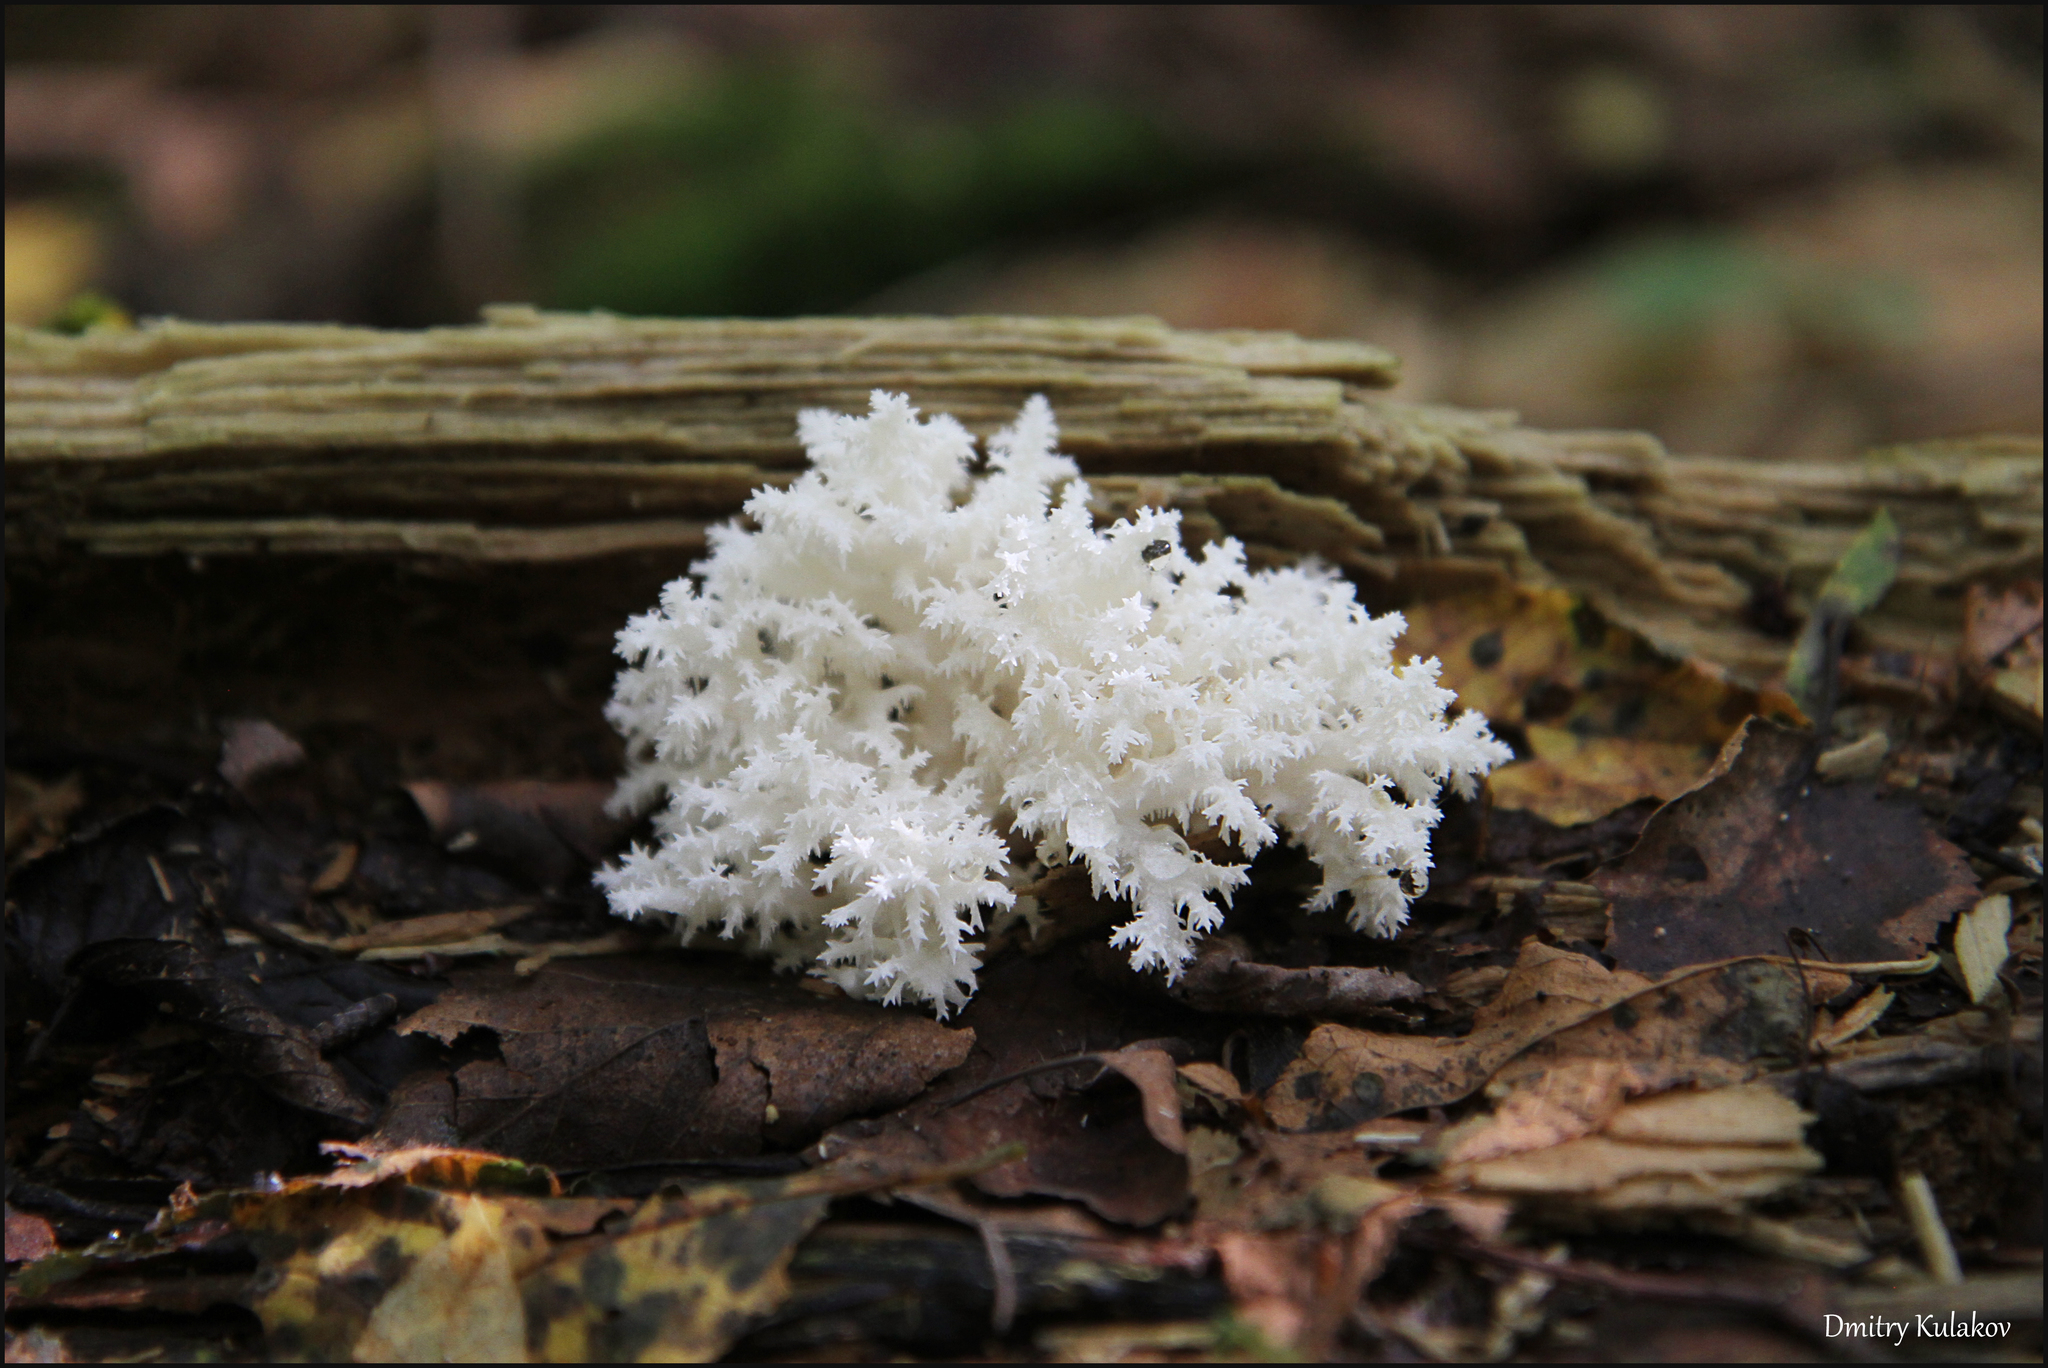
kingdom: Fungi
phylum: Basidiomycota
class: Agaricomycetes
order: Russulales
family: Hericiaceae
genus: Hericium
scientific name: Hericium coralloides
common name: Coral tooth
